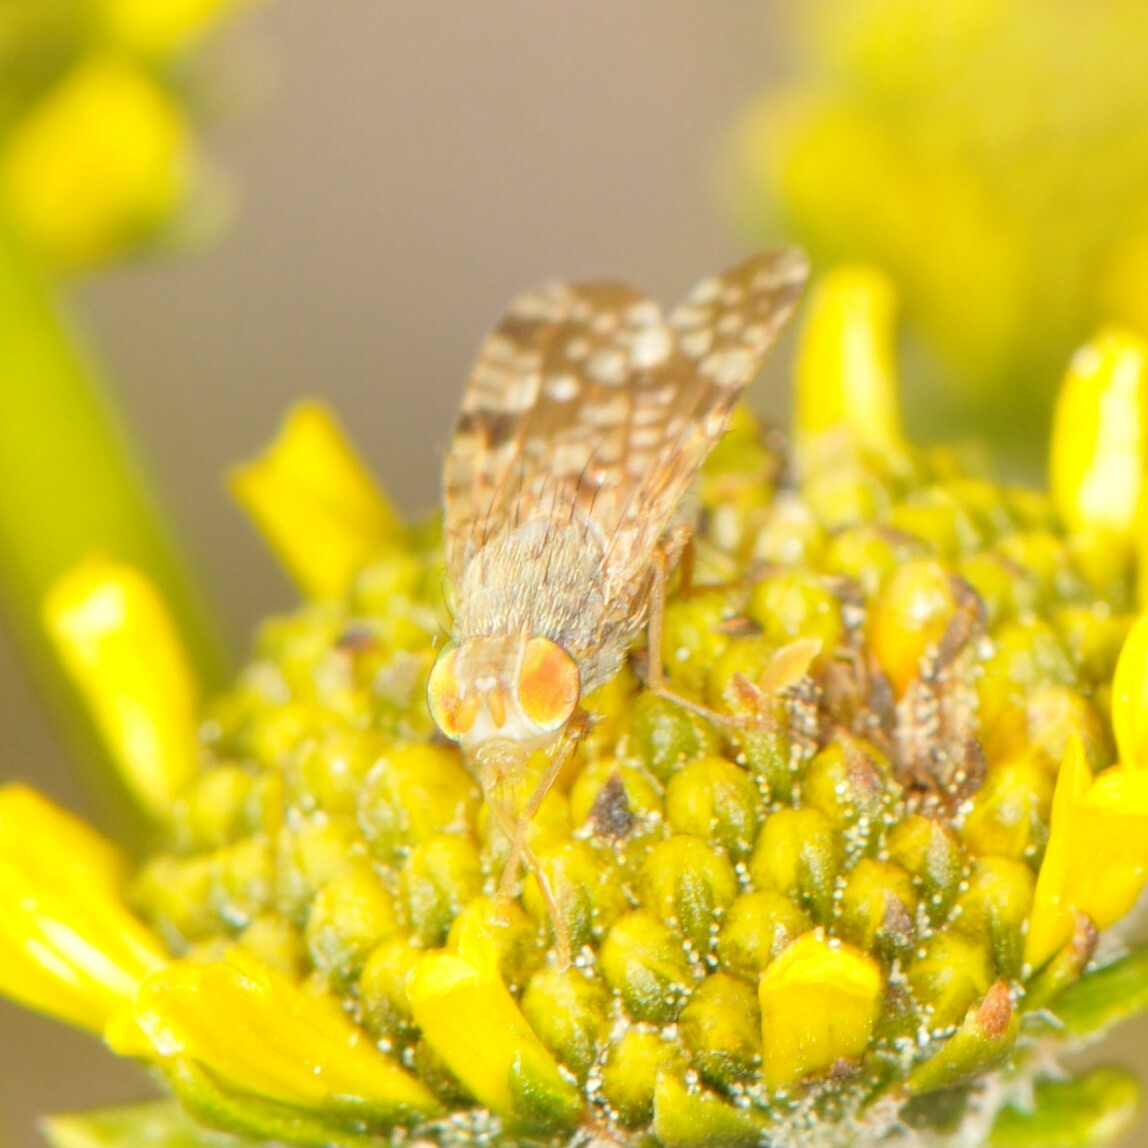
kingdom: Animalia
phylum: Arthropoda
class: Insecta
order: Diptera
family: Tephritidae
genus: Neotephritis
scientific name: Neotephritis finalis
